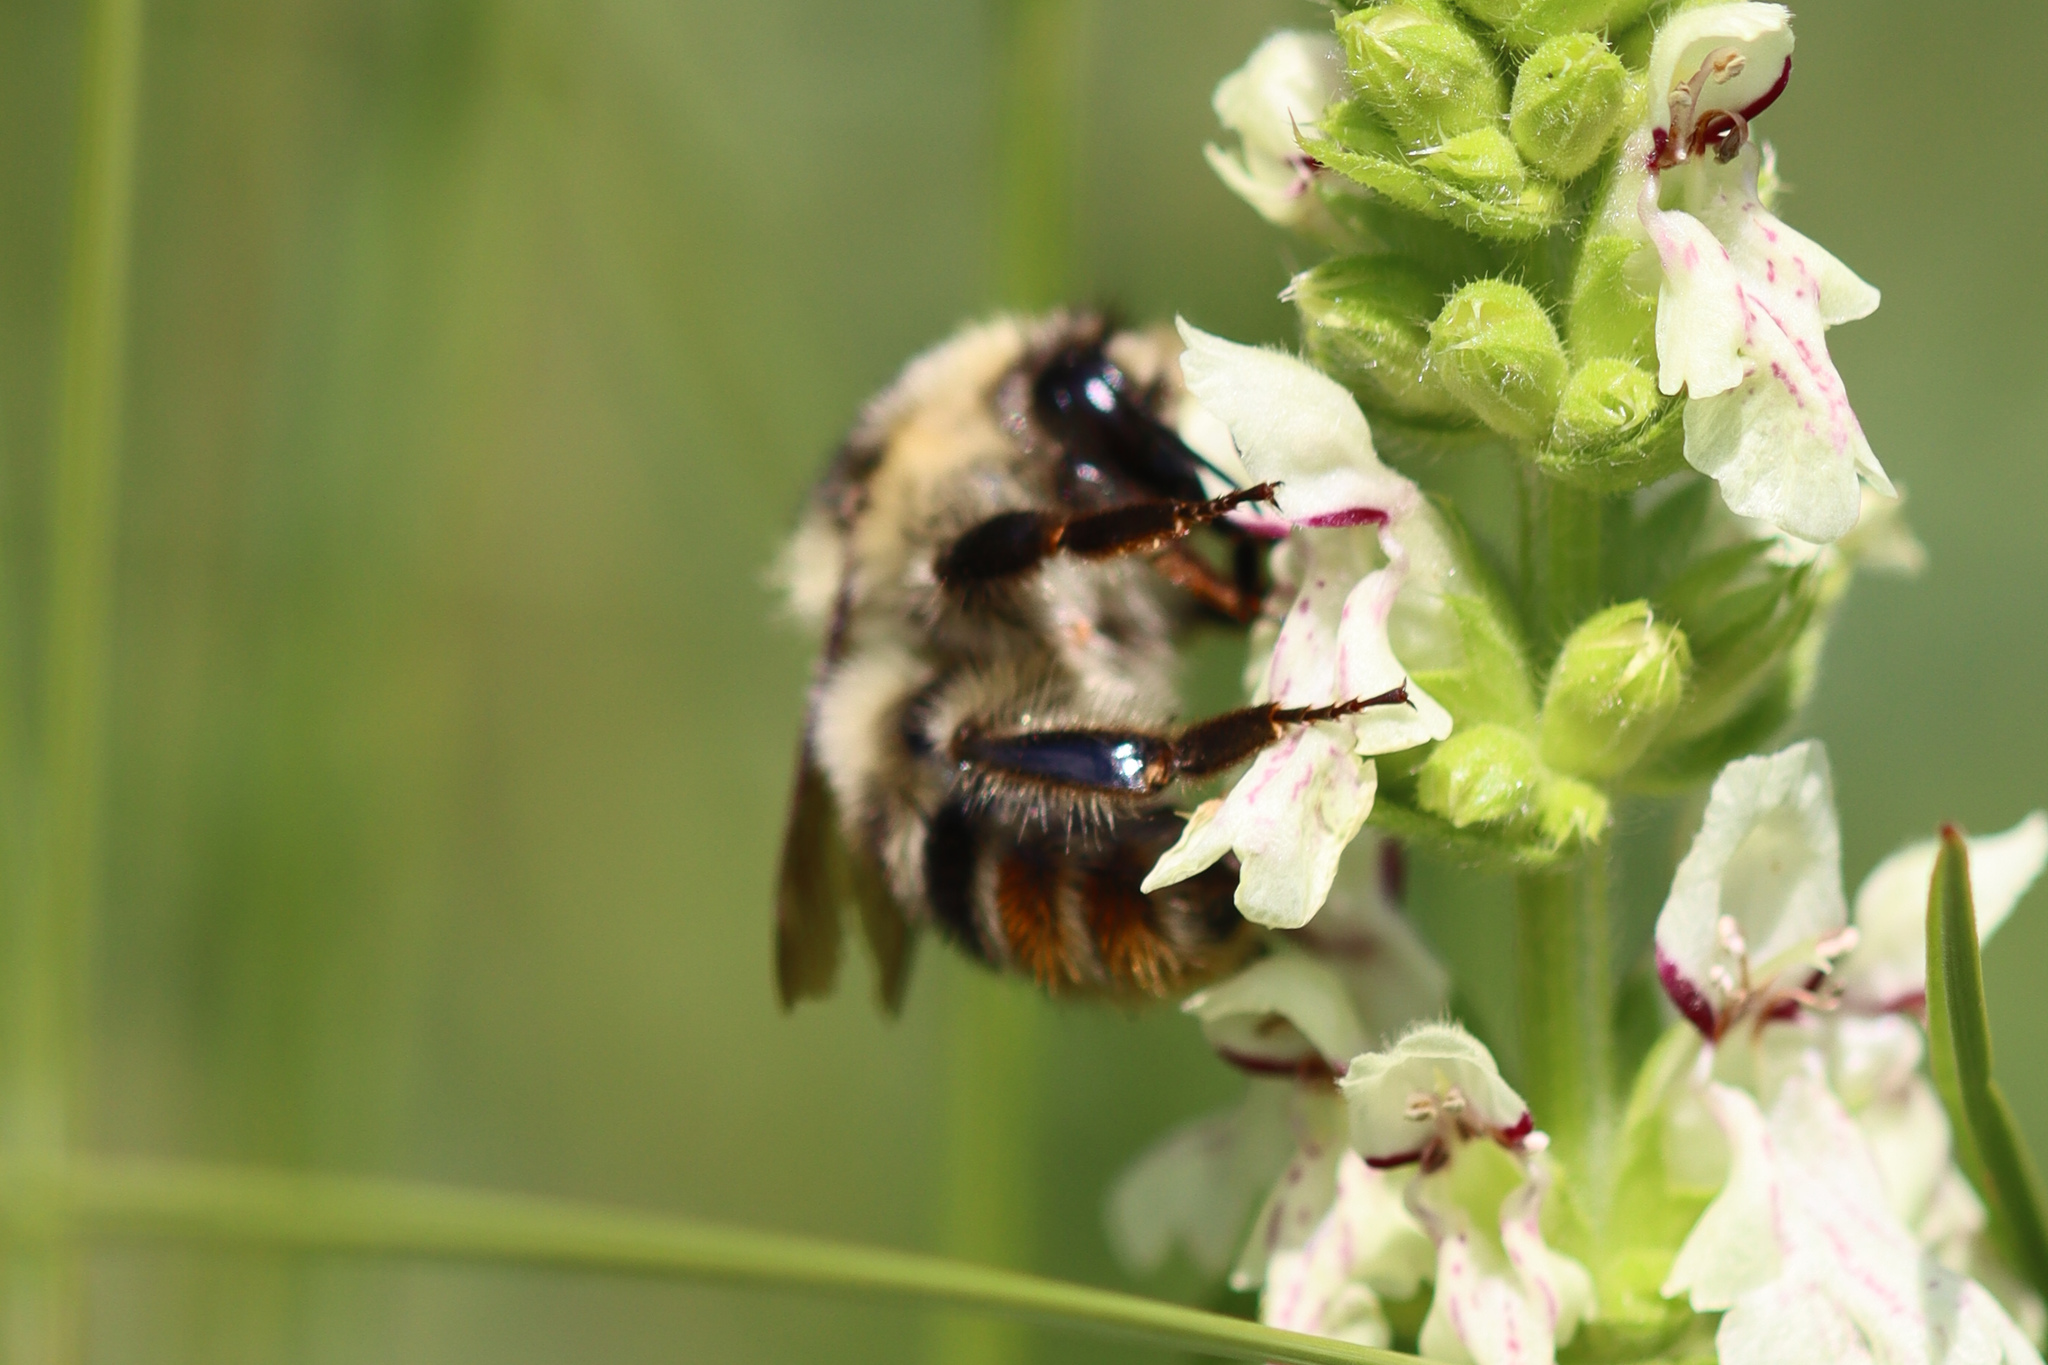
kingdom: Animalia
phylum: Arthropoda
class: Insecta
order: Hymenoptera
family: Apidae
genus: Bombus
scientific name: Bombus sylvarum
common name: Shrill carder bee
